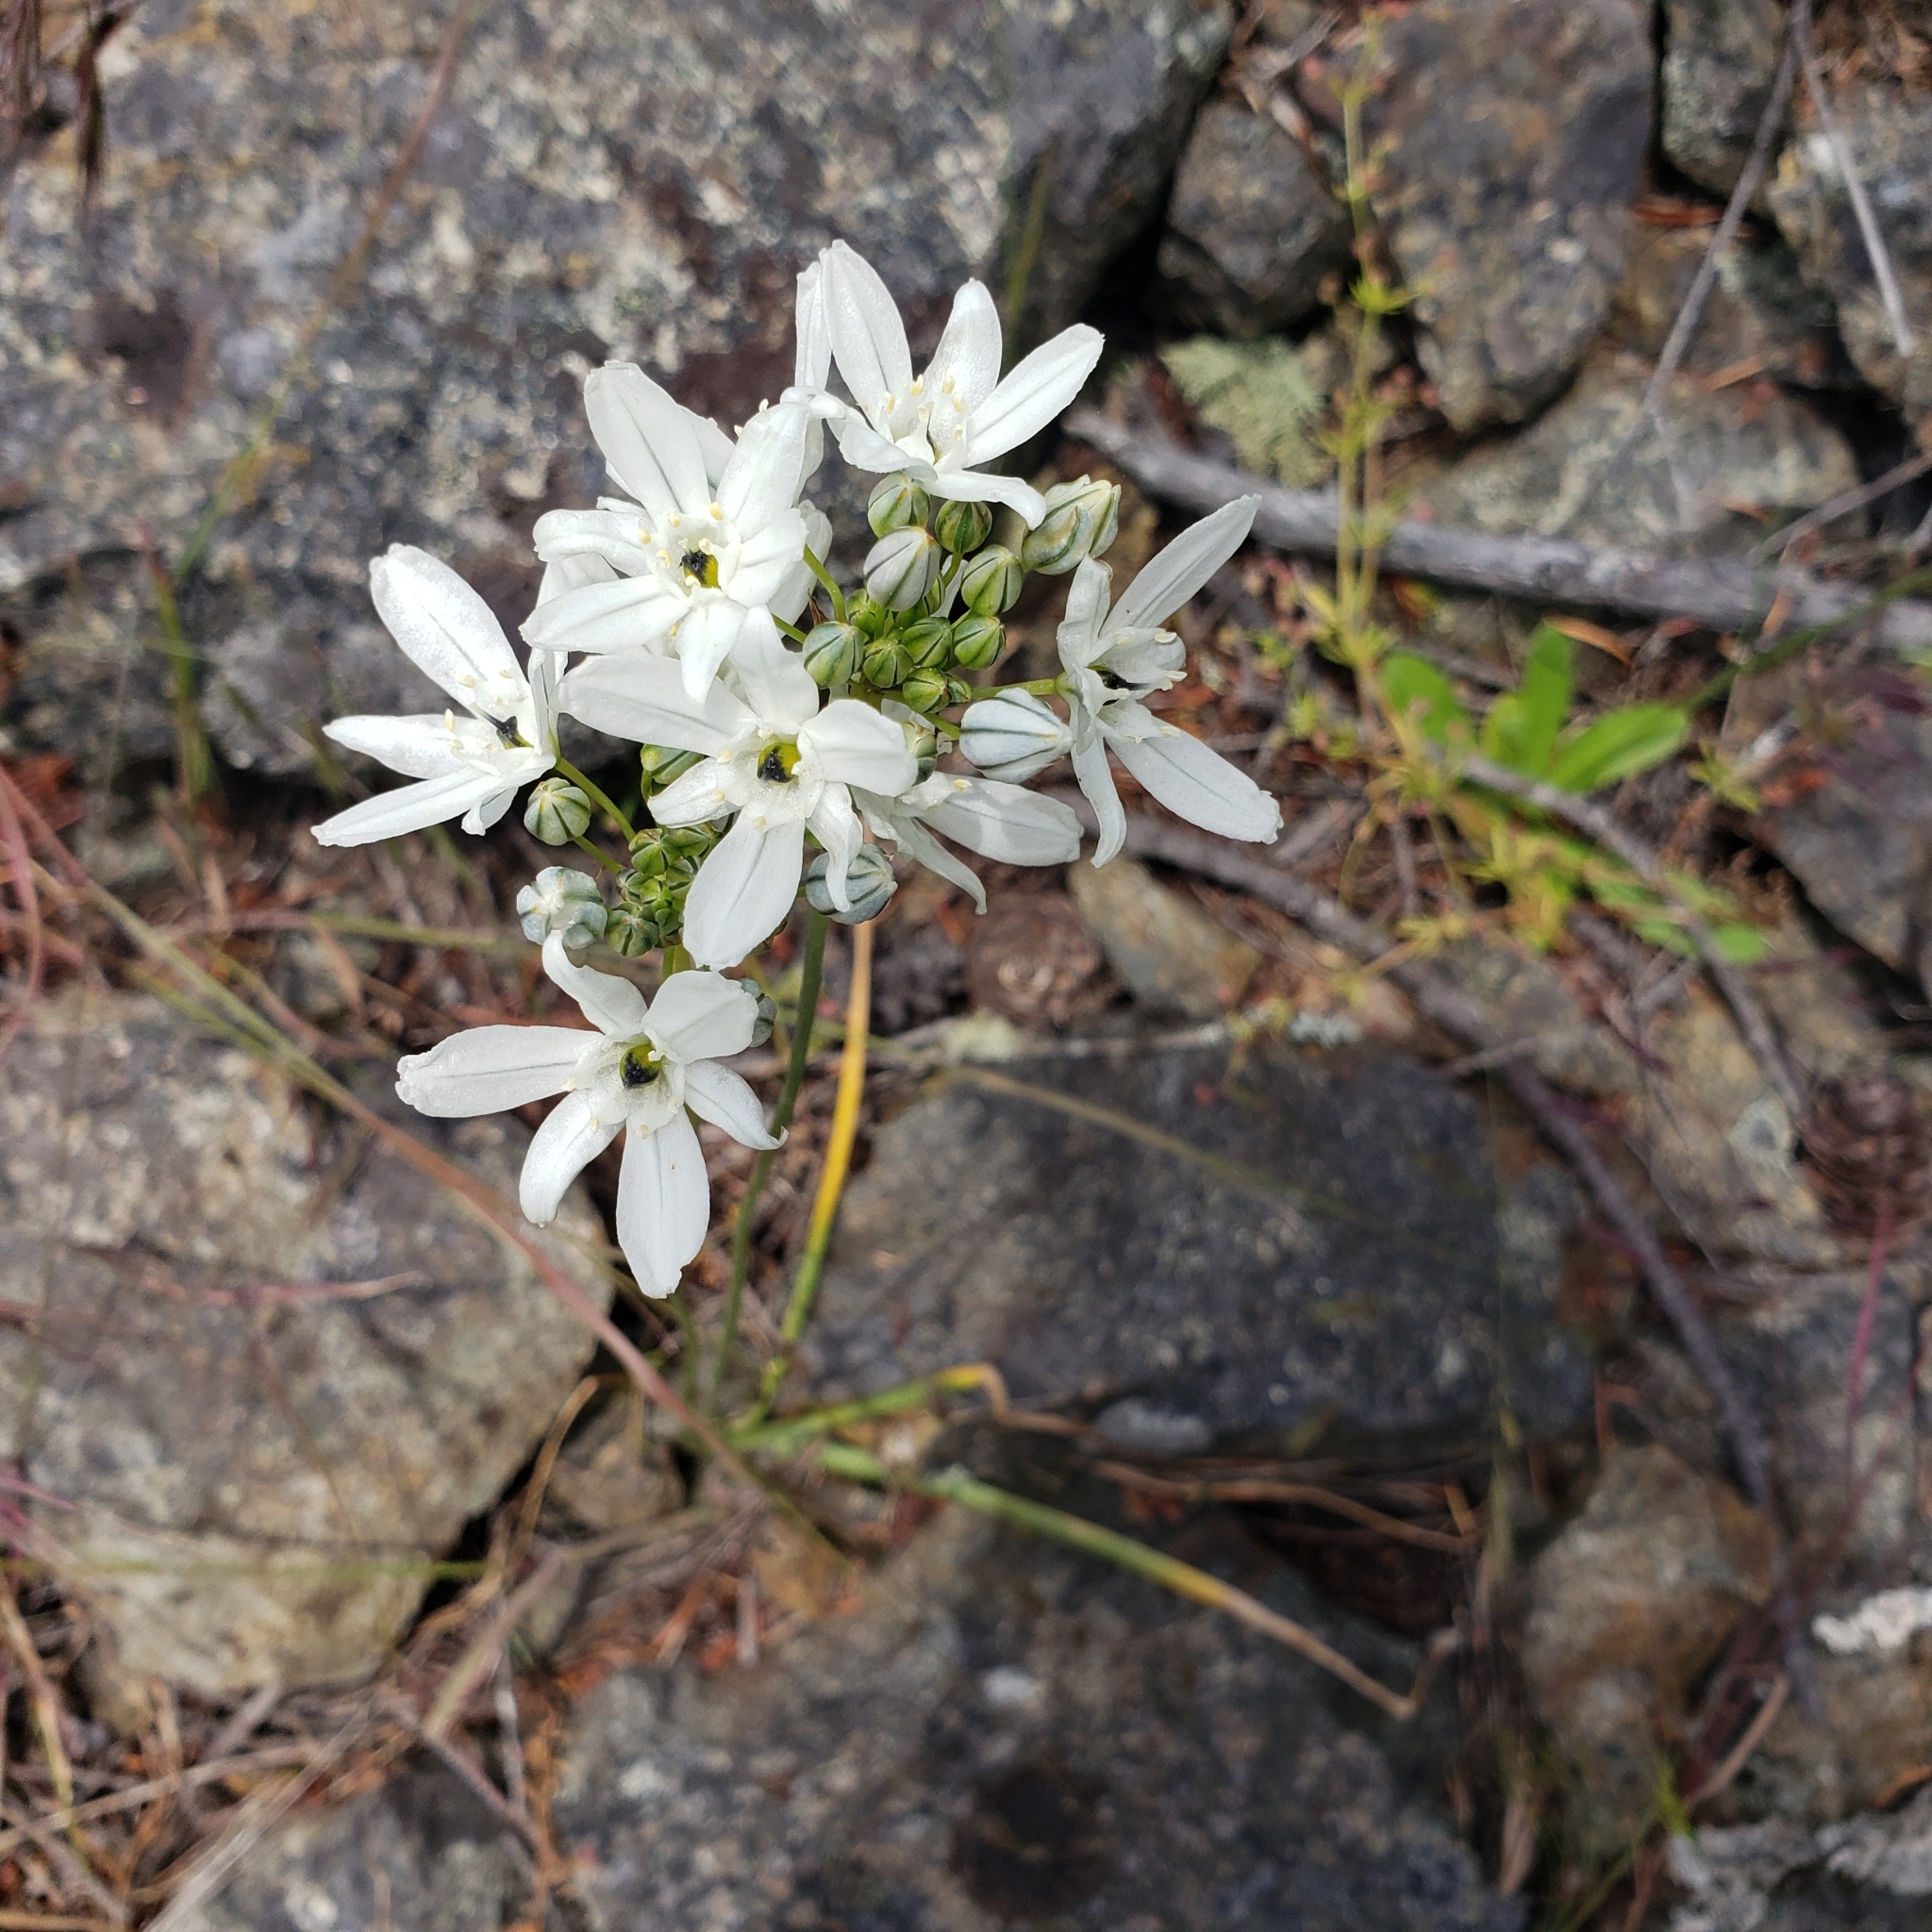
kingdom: Plantae
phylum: Tracheophyta
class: Liliopsida
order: Asparagales
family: Asparagaceae
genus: Triteleia
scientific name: Triteleia hyacinthina
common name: White brodiaea
